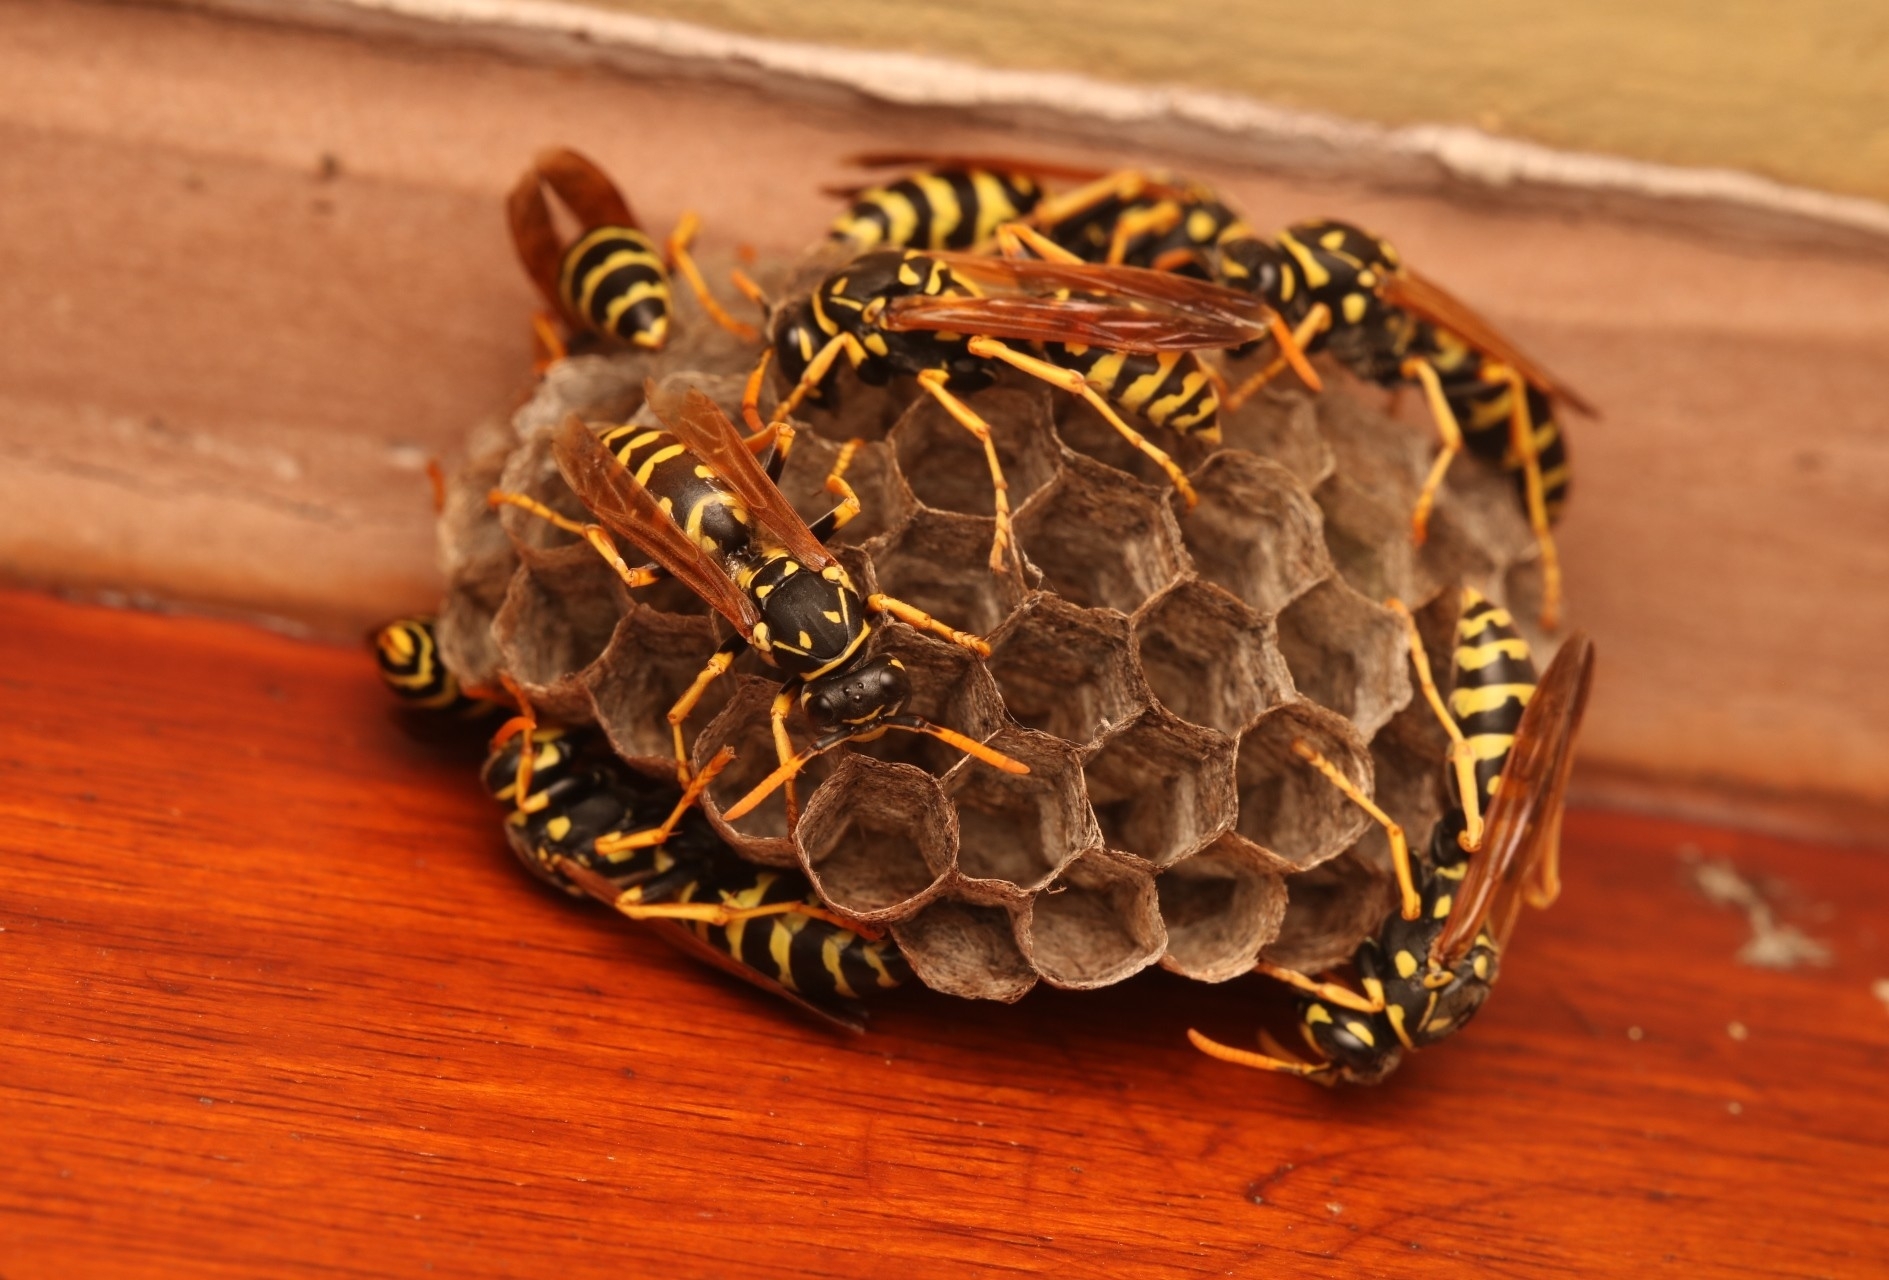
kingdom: Animalia
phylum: Arthropoda
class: Insecta
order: Hymenoptera
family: Eumenidae
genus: Polistes
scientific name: Polistes dominula
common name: Paper wasp
